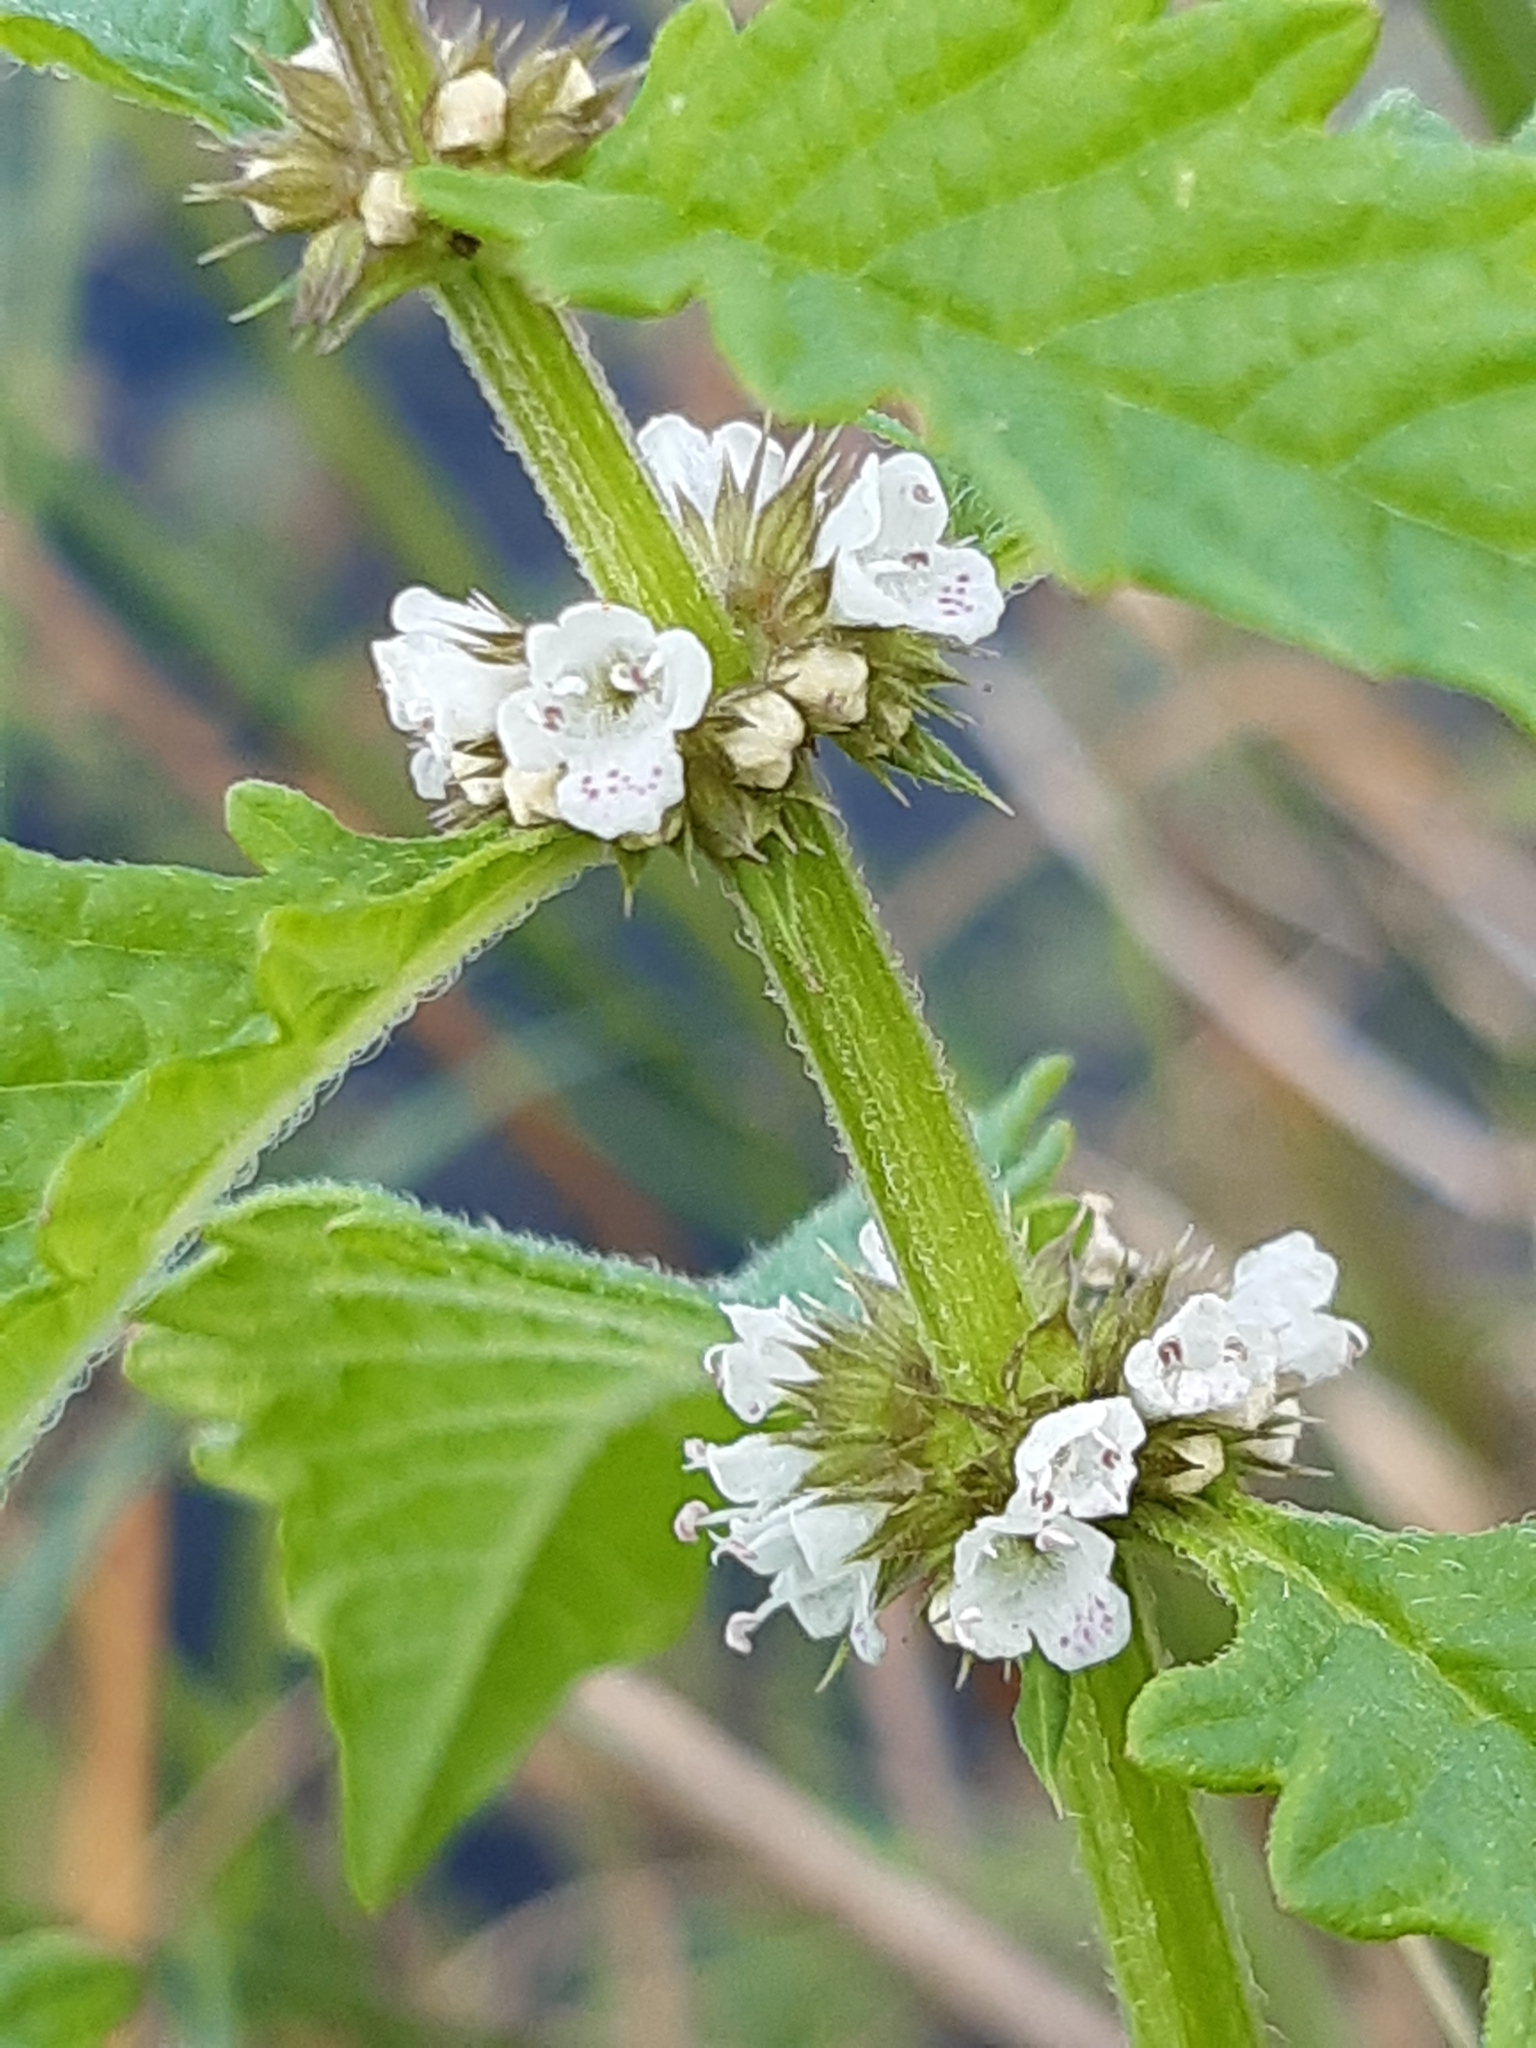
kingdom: Plantae
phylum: Tracheophyta
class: Magnoliopsida
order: Lamiales
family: Lamiaceae
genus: Lycopus
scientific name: Lycopus europaeus
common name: European bugleweed
